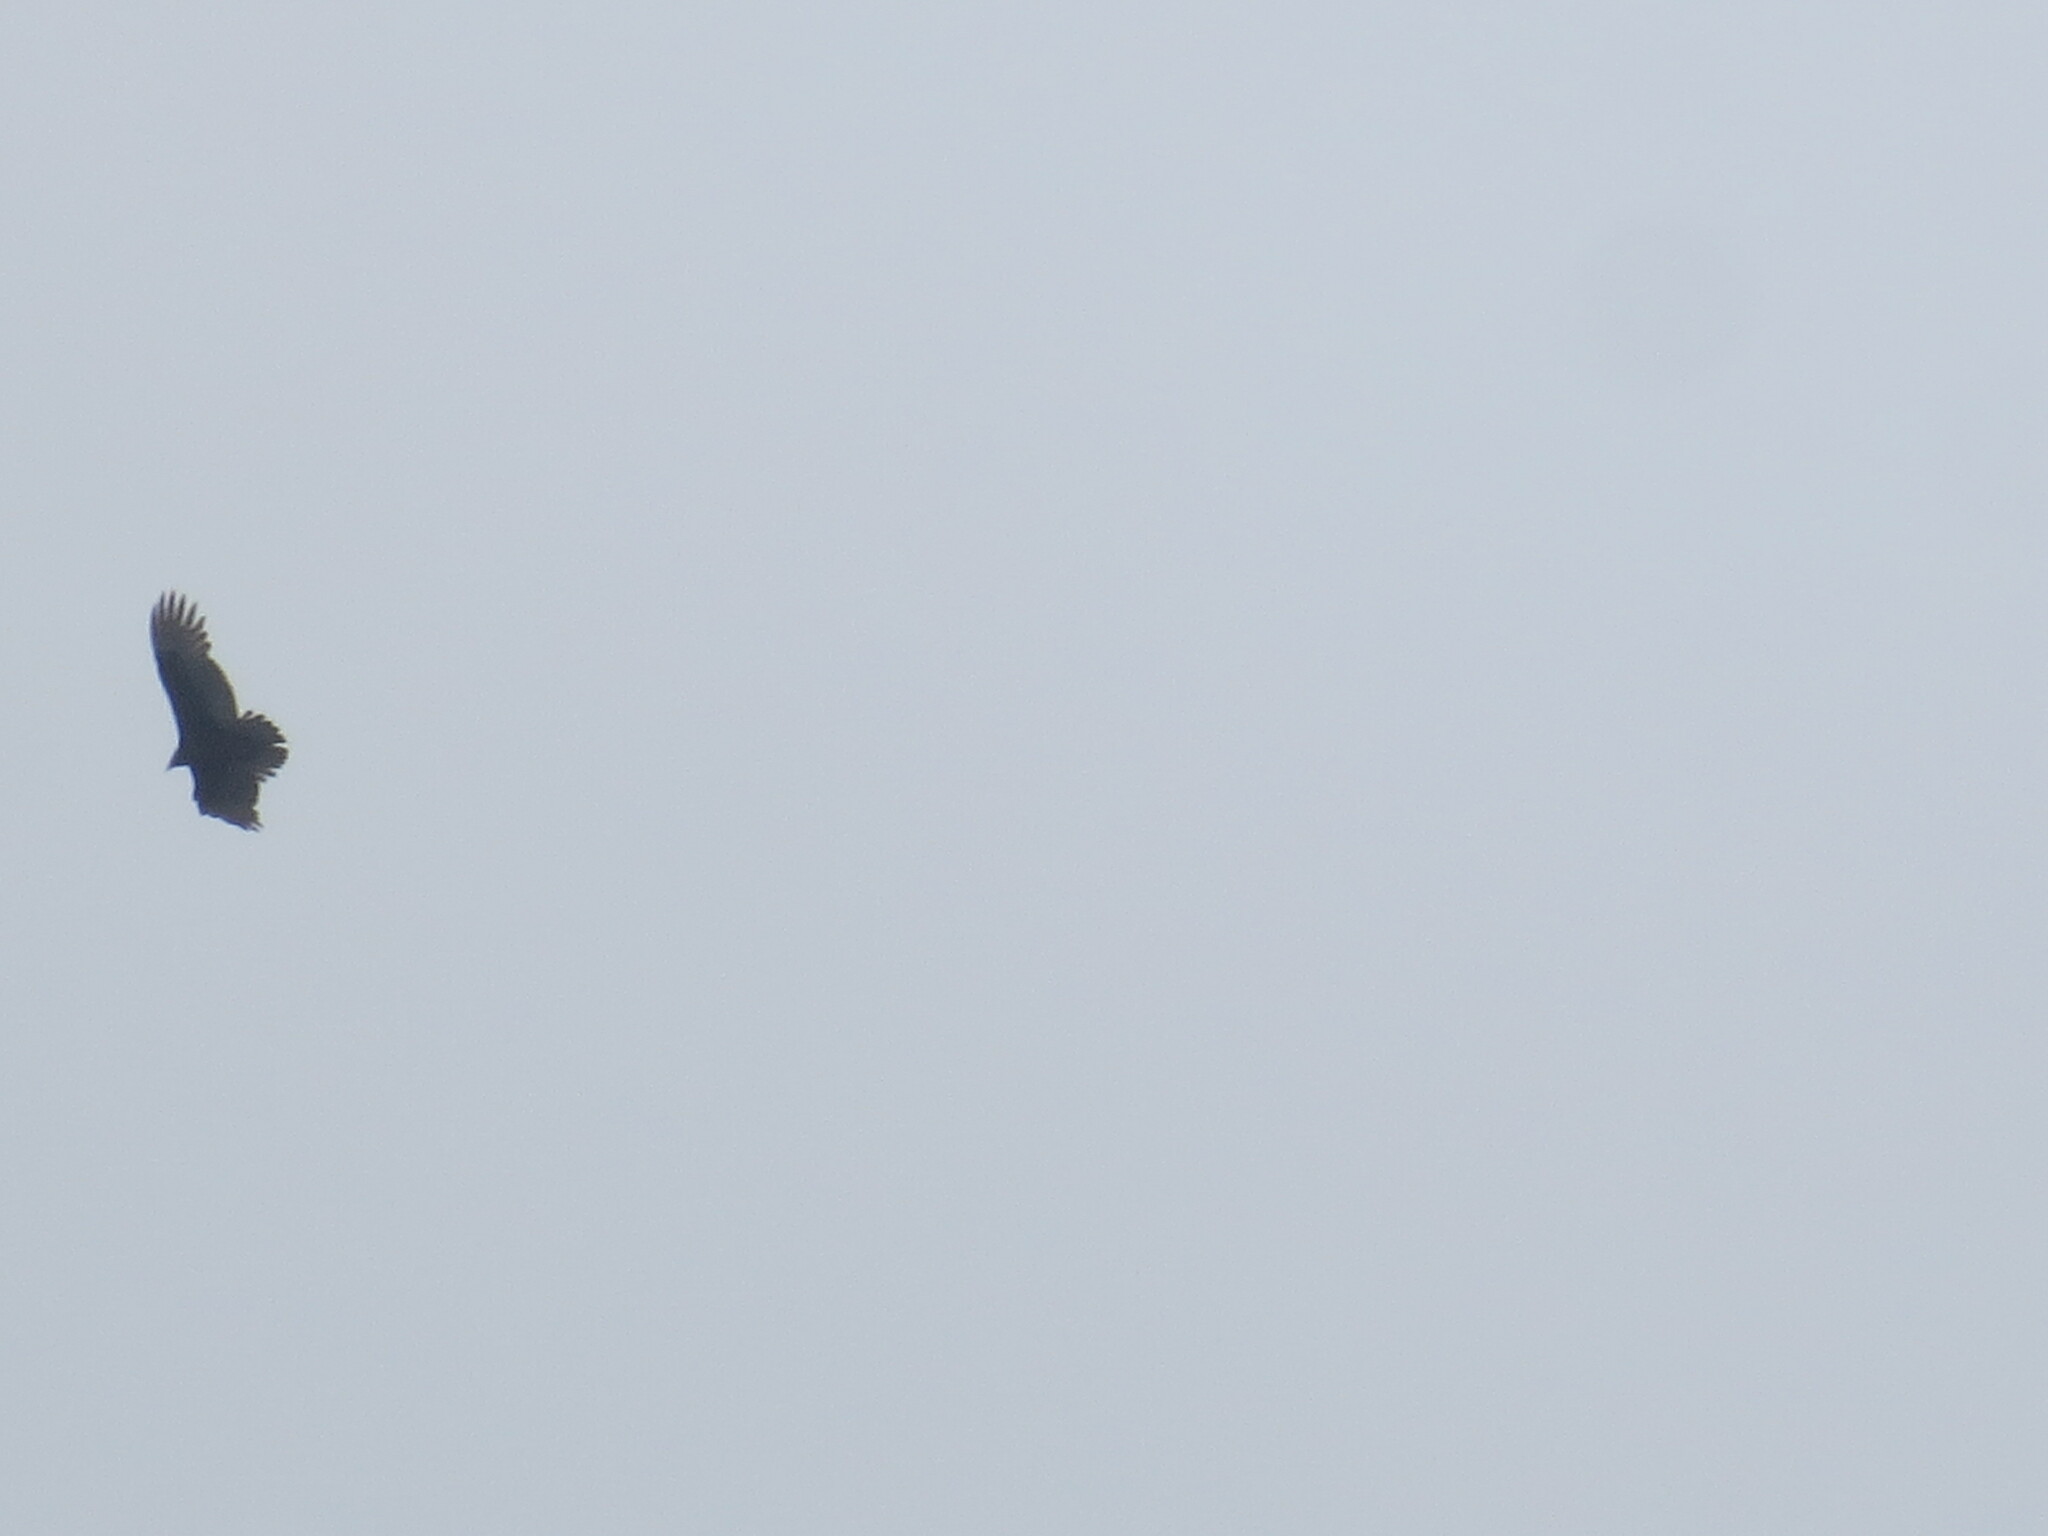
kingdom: Animalia
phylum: Chordata
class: Aves
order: Accipitriformes
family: Cathartidae
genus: Cathartes
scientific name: Cathartes aura
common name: Turkey vulture
